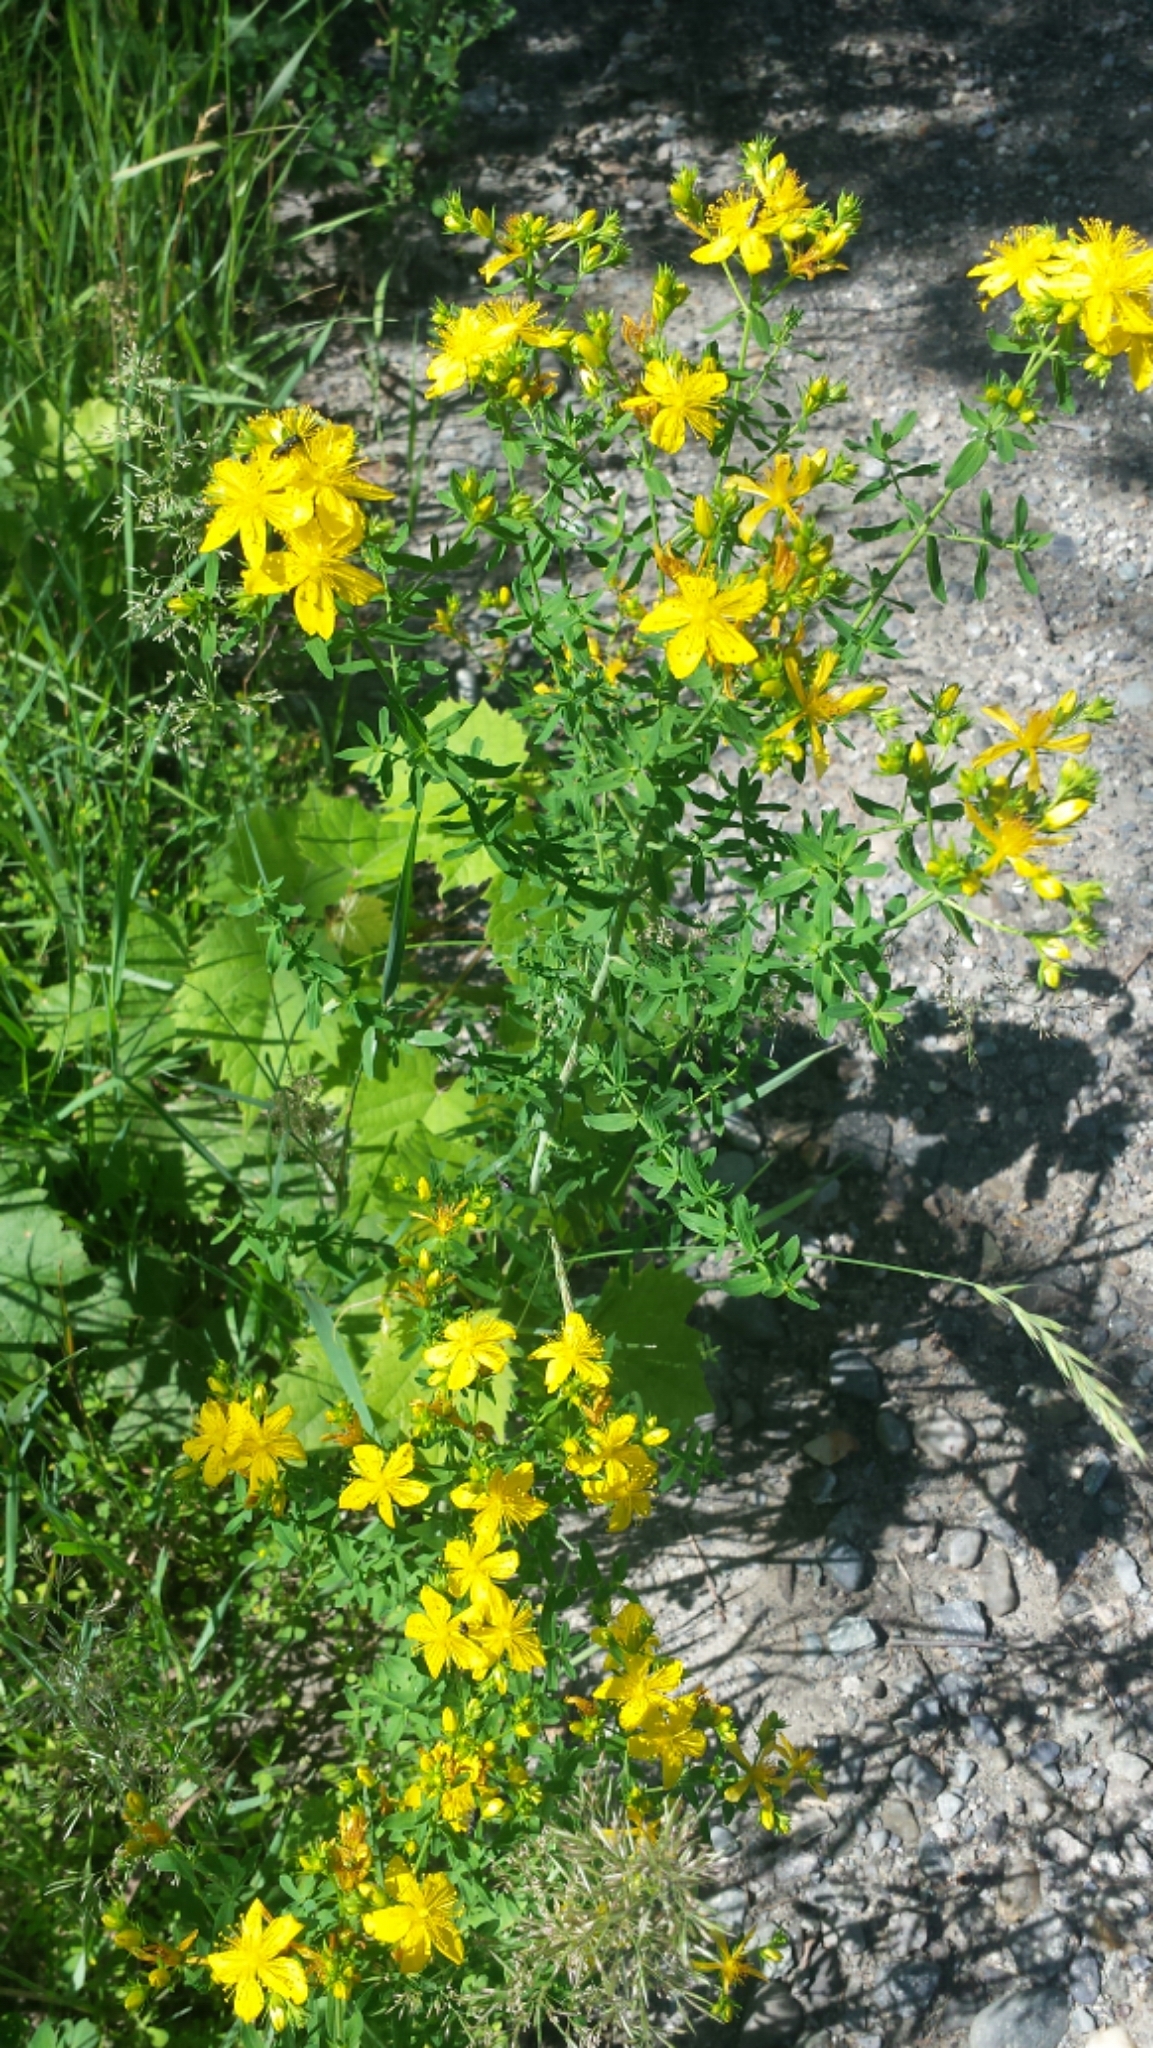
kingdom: Plantae
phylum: Tracheophyta
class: Magnoliopsida
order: Malpighiales
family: Hypericaceae
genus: Hypericum
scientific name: Hypericum perforatum
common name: Common st. johnswort
